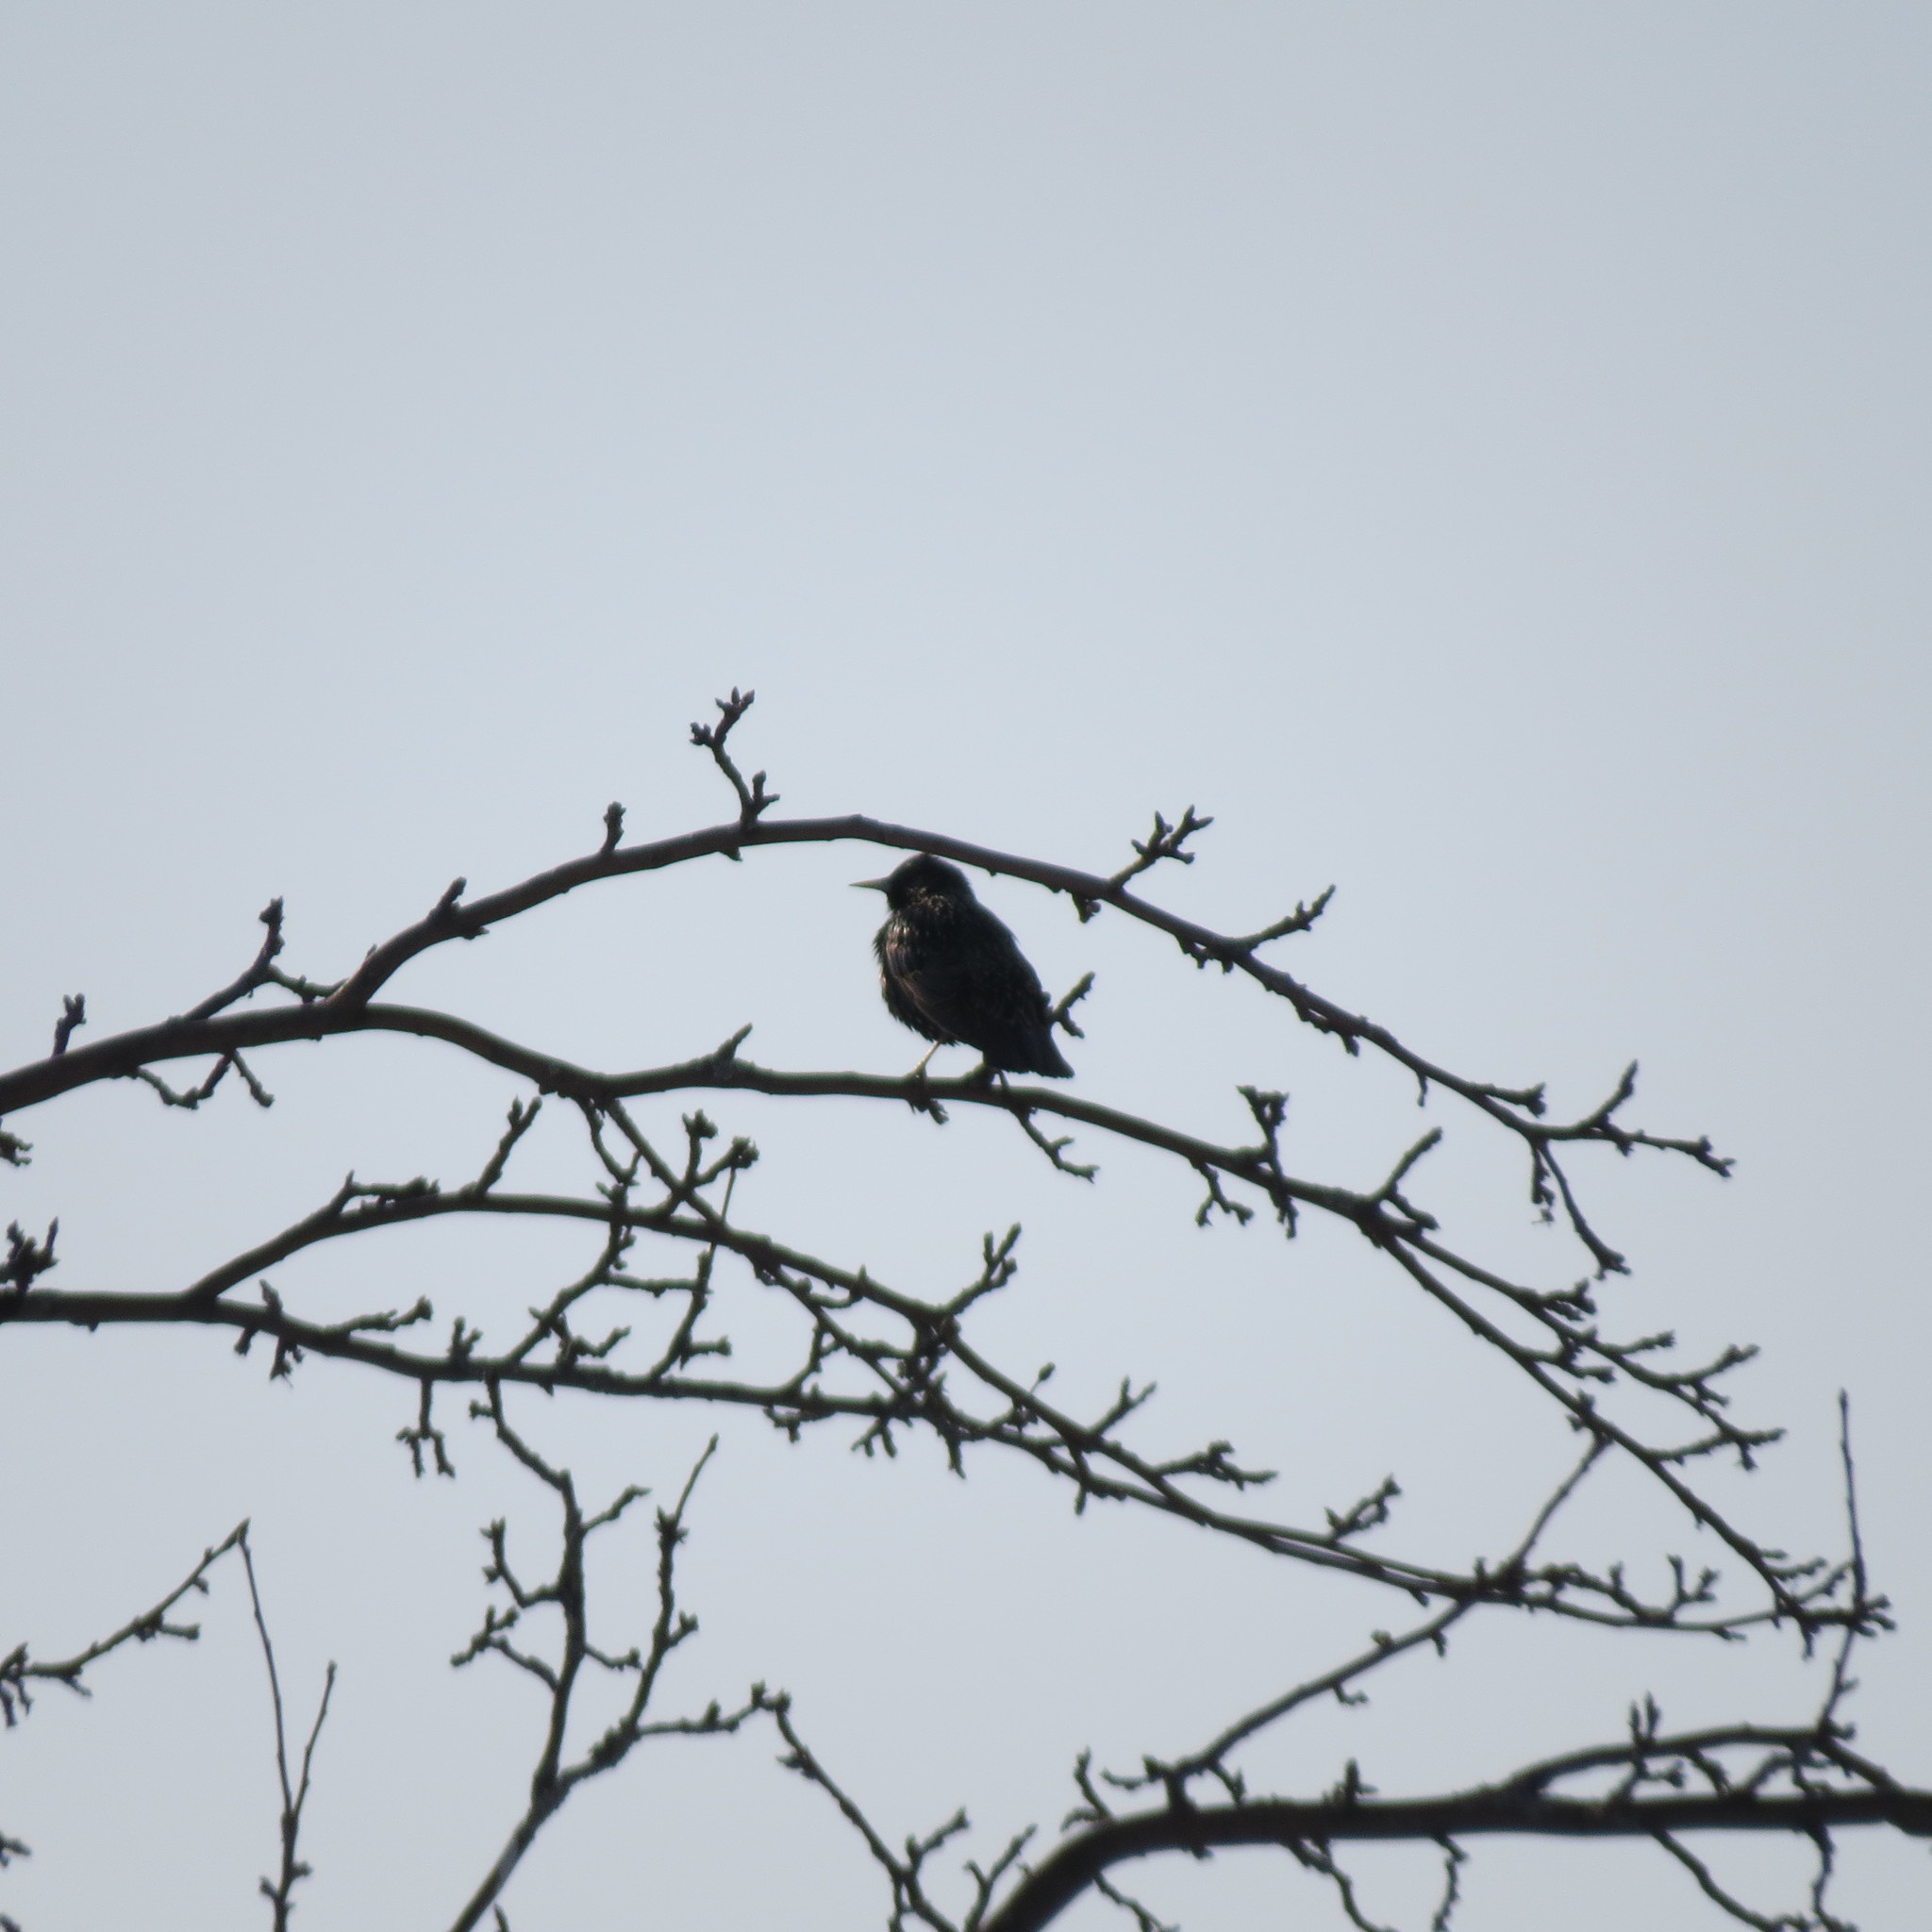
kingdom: Animalia
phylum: Chordata
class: Aves
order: Passeriformes
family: Sturnidae
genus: Sturnus
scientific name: Sturnus vulgaris
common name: Common starling
